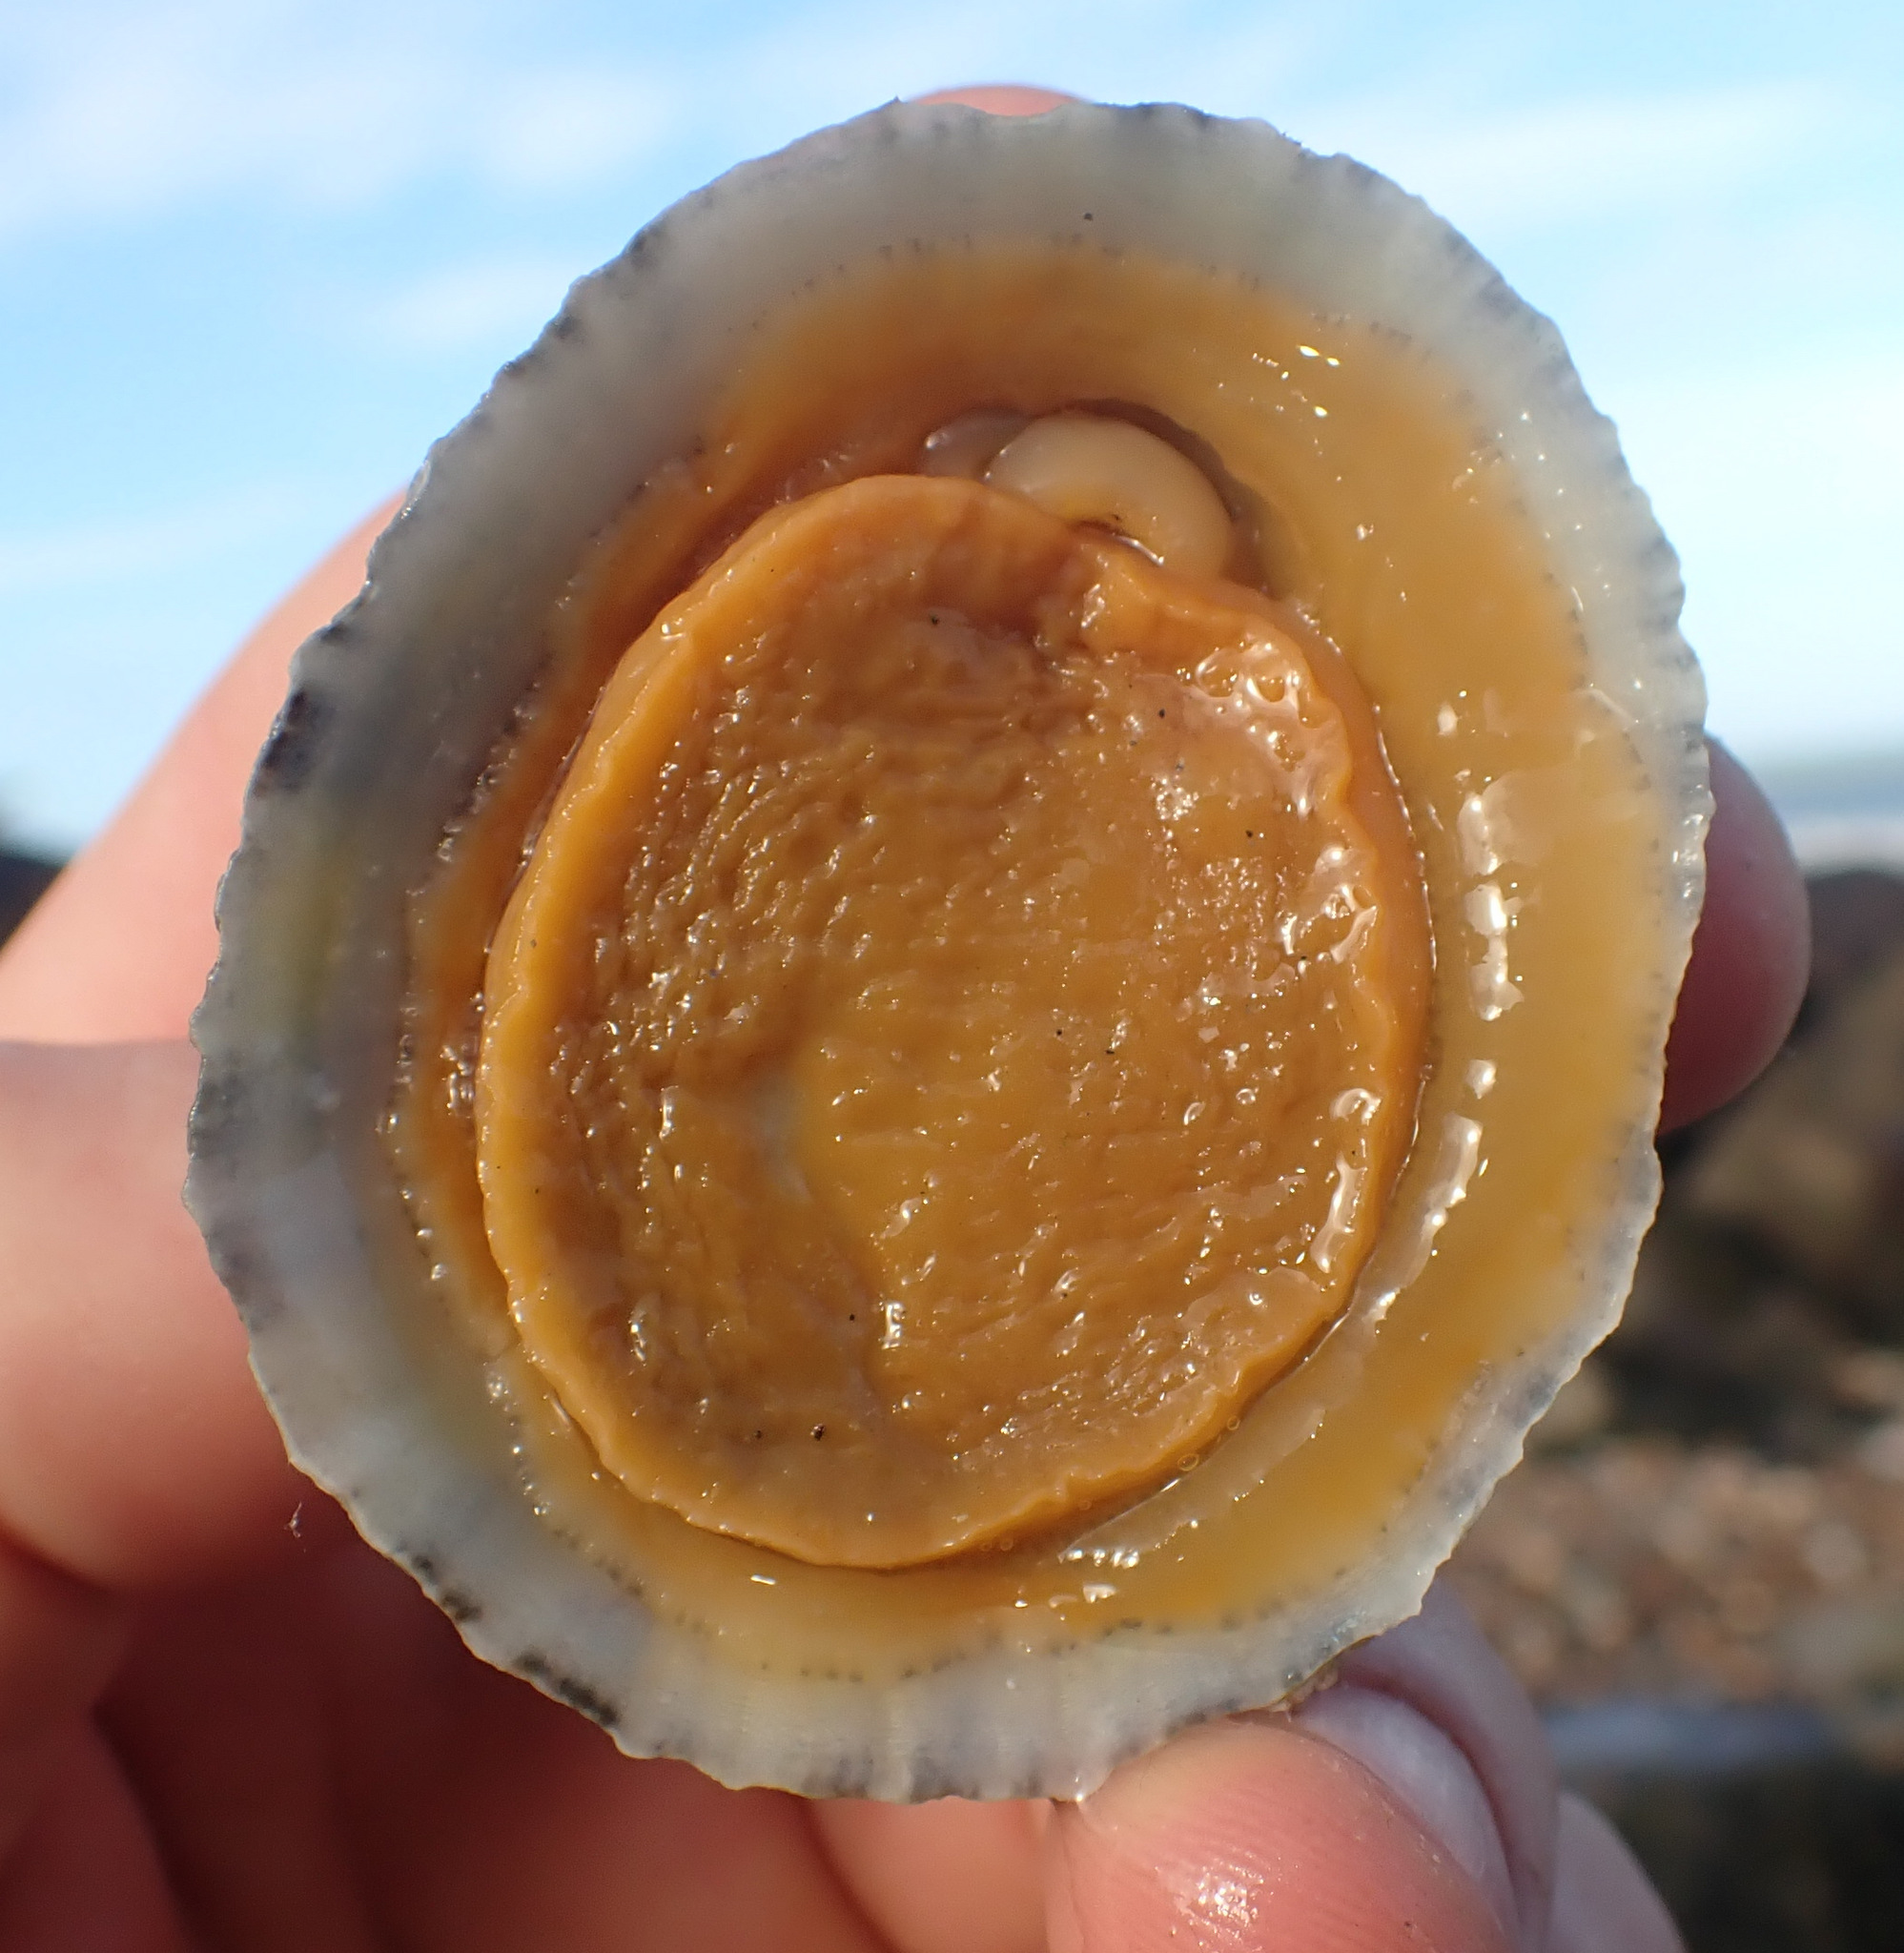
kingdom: Animalia
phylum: Mollusca
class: Gastropoda
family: Patellidae
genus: Patella
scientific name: Patella vulgata
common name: Common limpet
